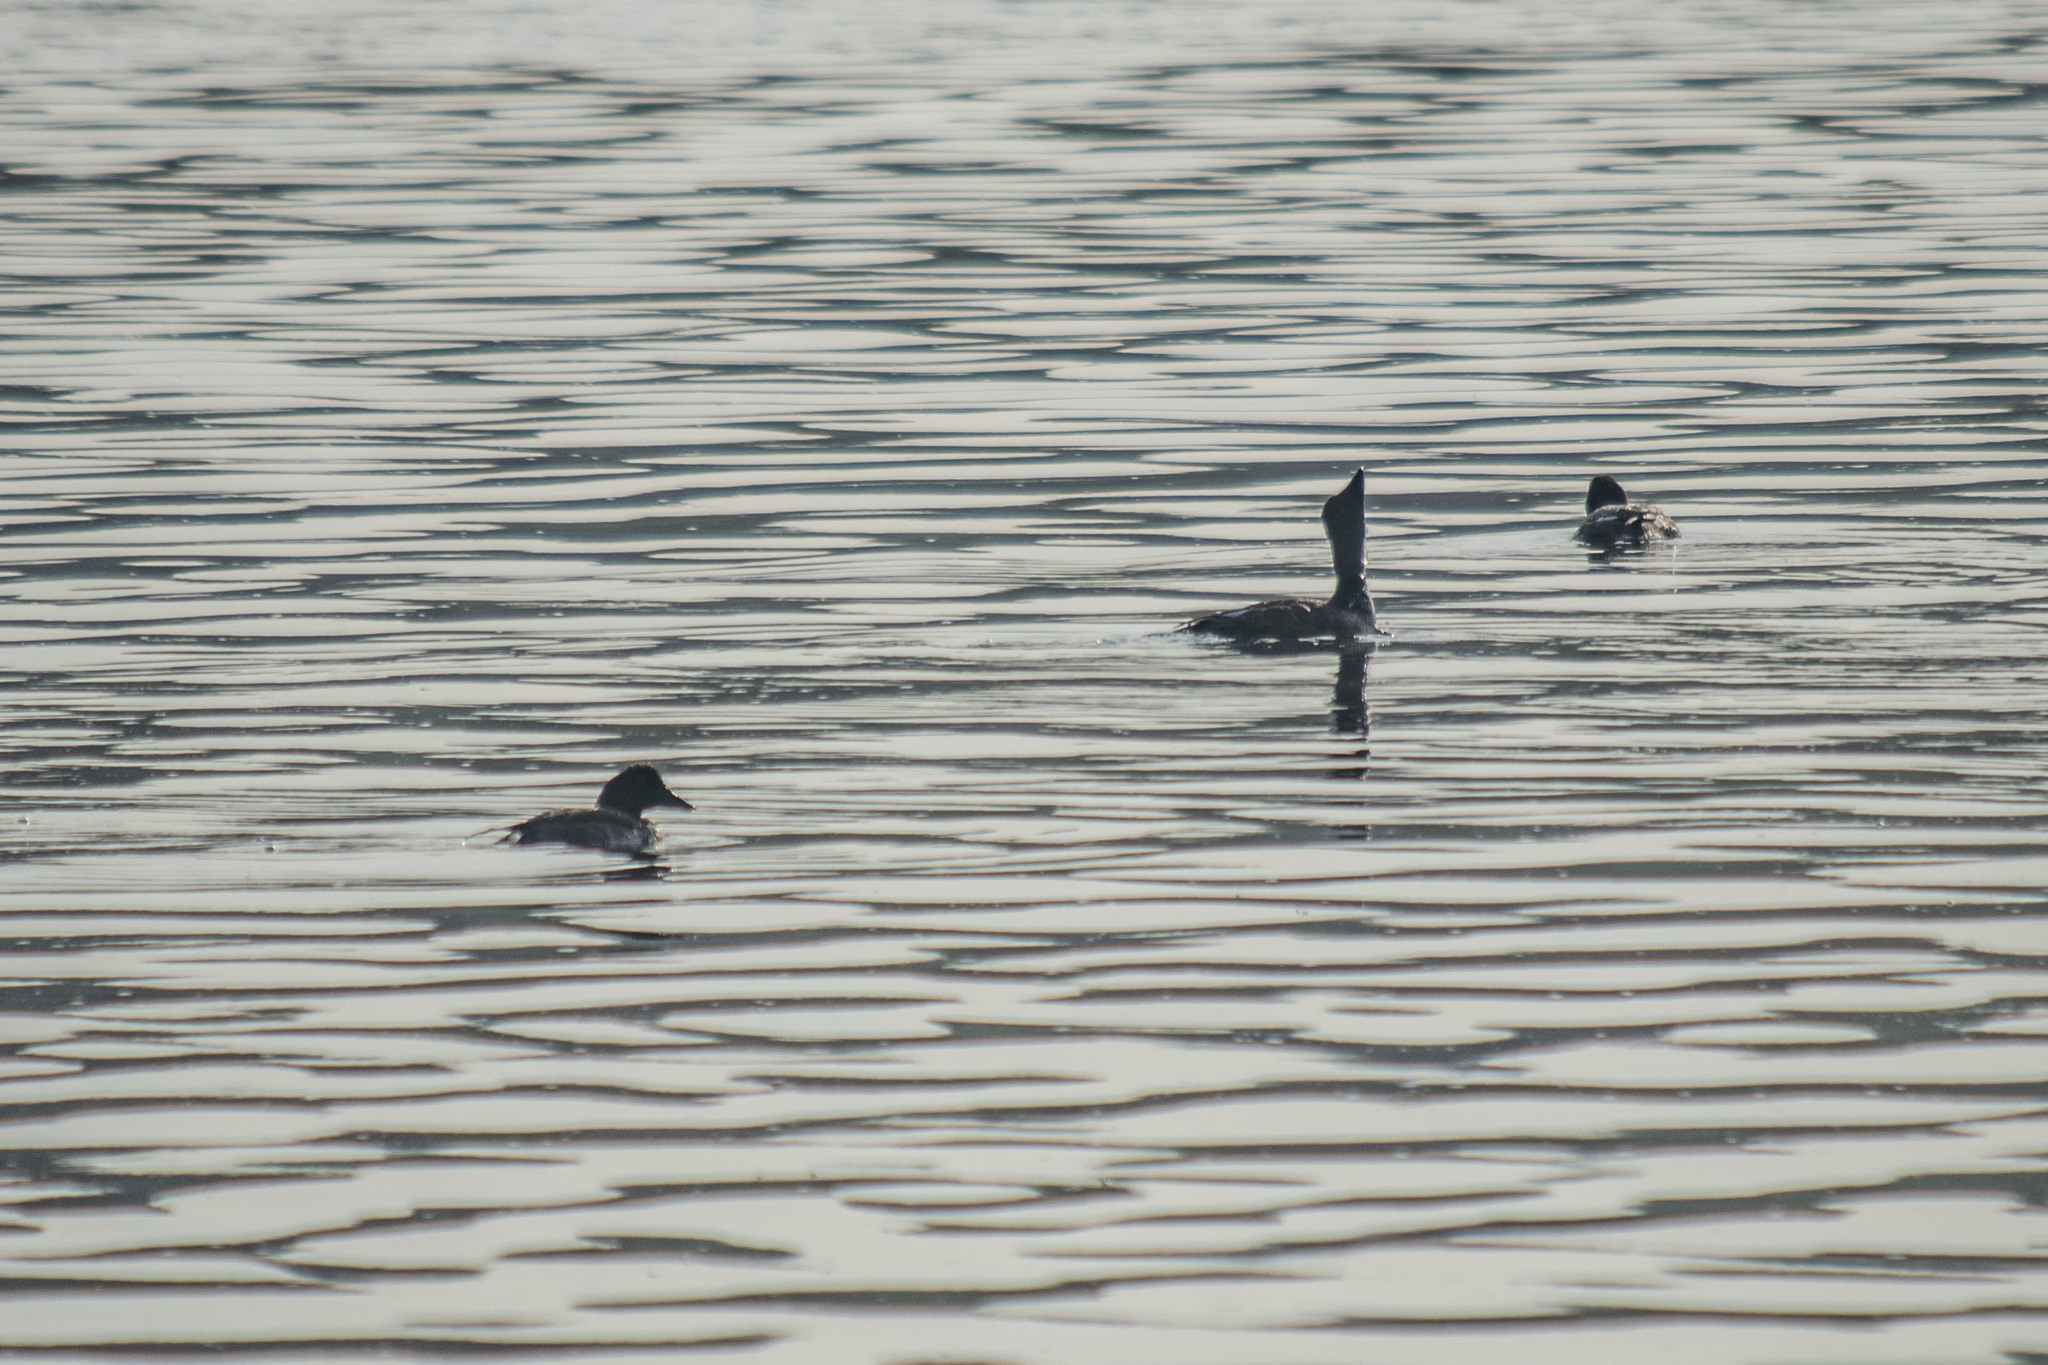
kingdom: Animalia
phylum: Chordata
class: Aves
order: Anseriformes
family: Anatidae
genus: Bucephala
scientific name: Bucephala clangula
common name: Common goldeneye
